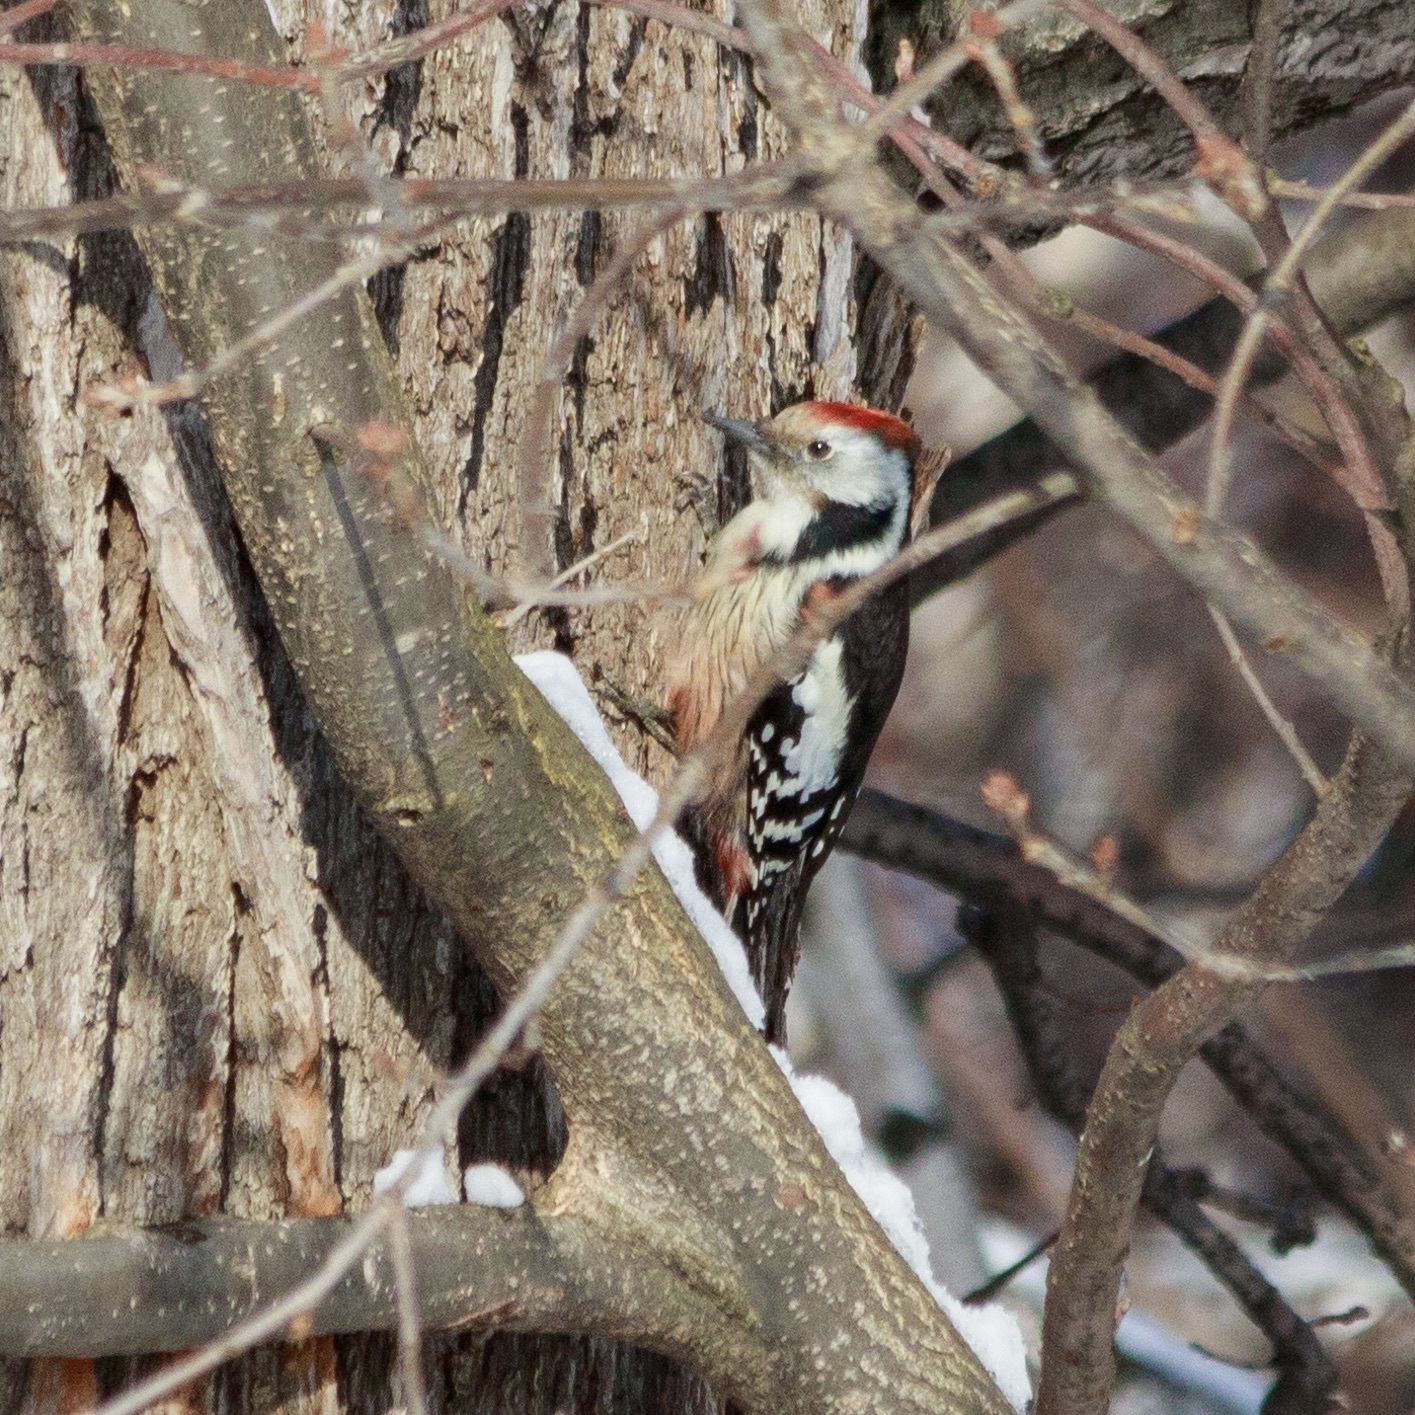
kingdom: Animalia
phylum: Chordata
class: Aves
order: Piciformes
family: Picidae
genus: Dendrocoptes
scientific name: Dendrocoptes medius
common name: Middle spotted woodpecker
